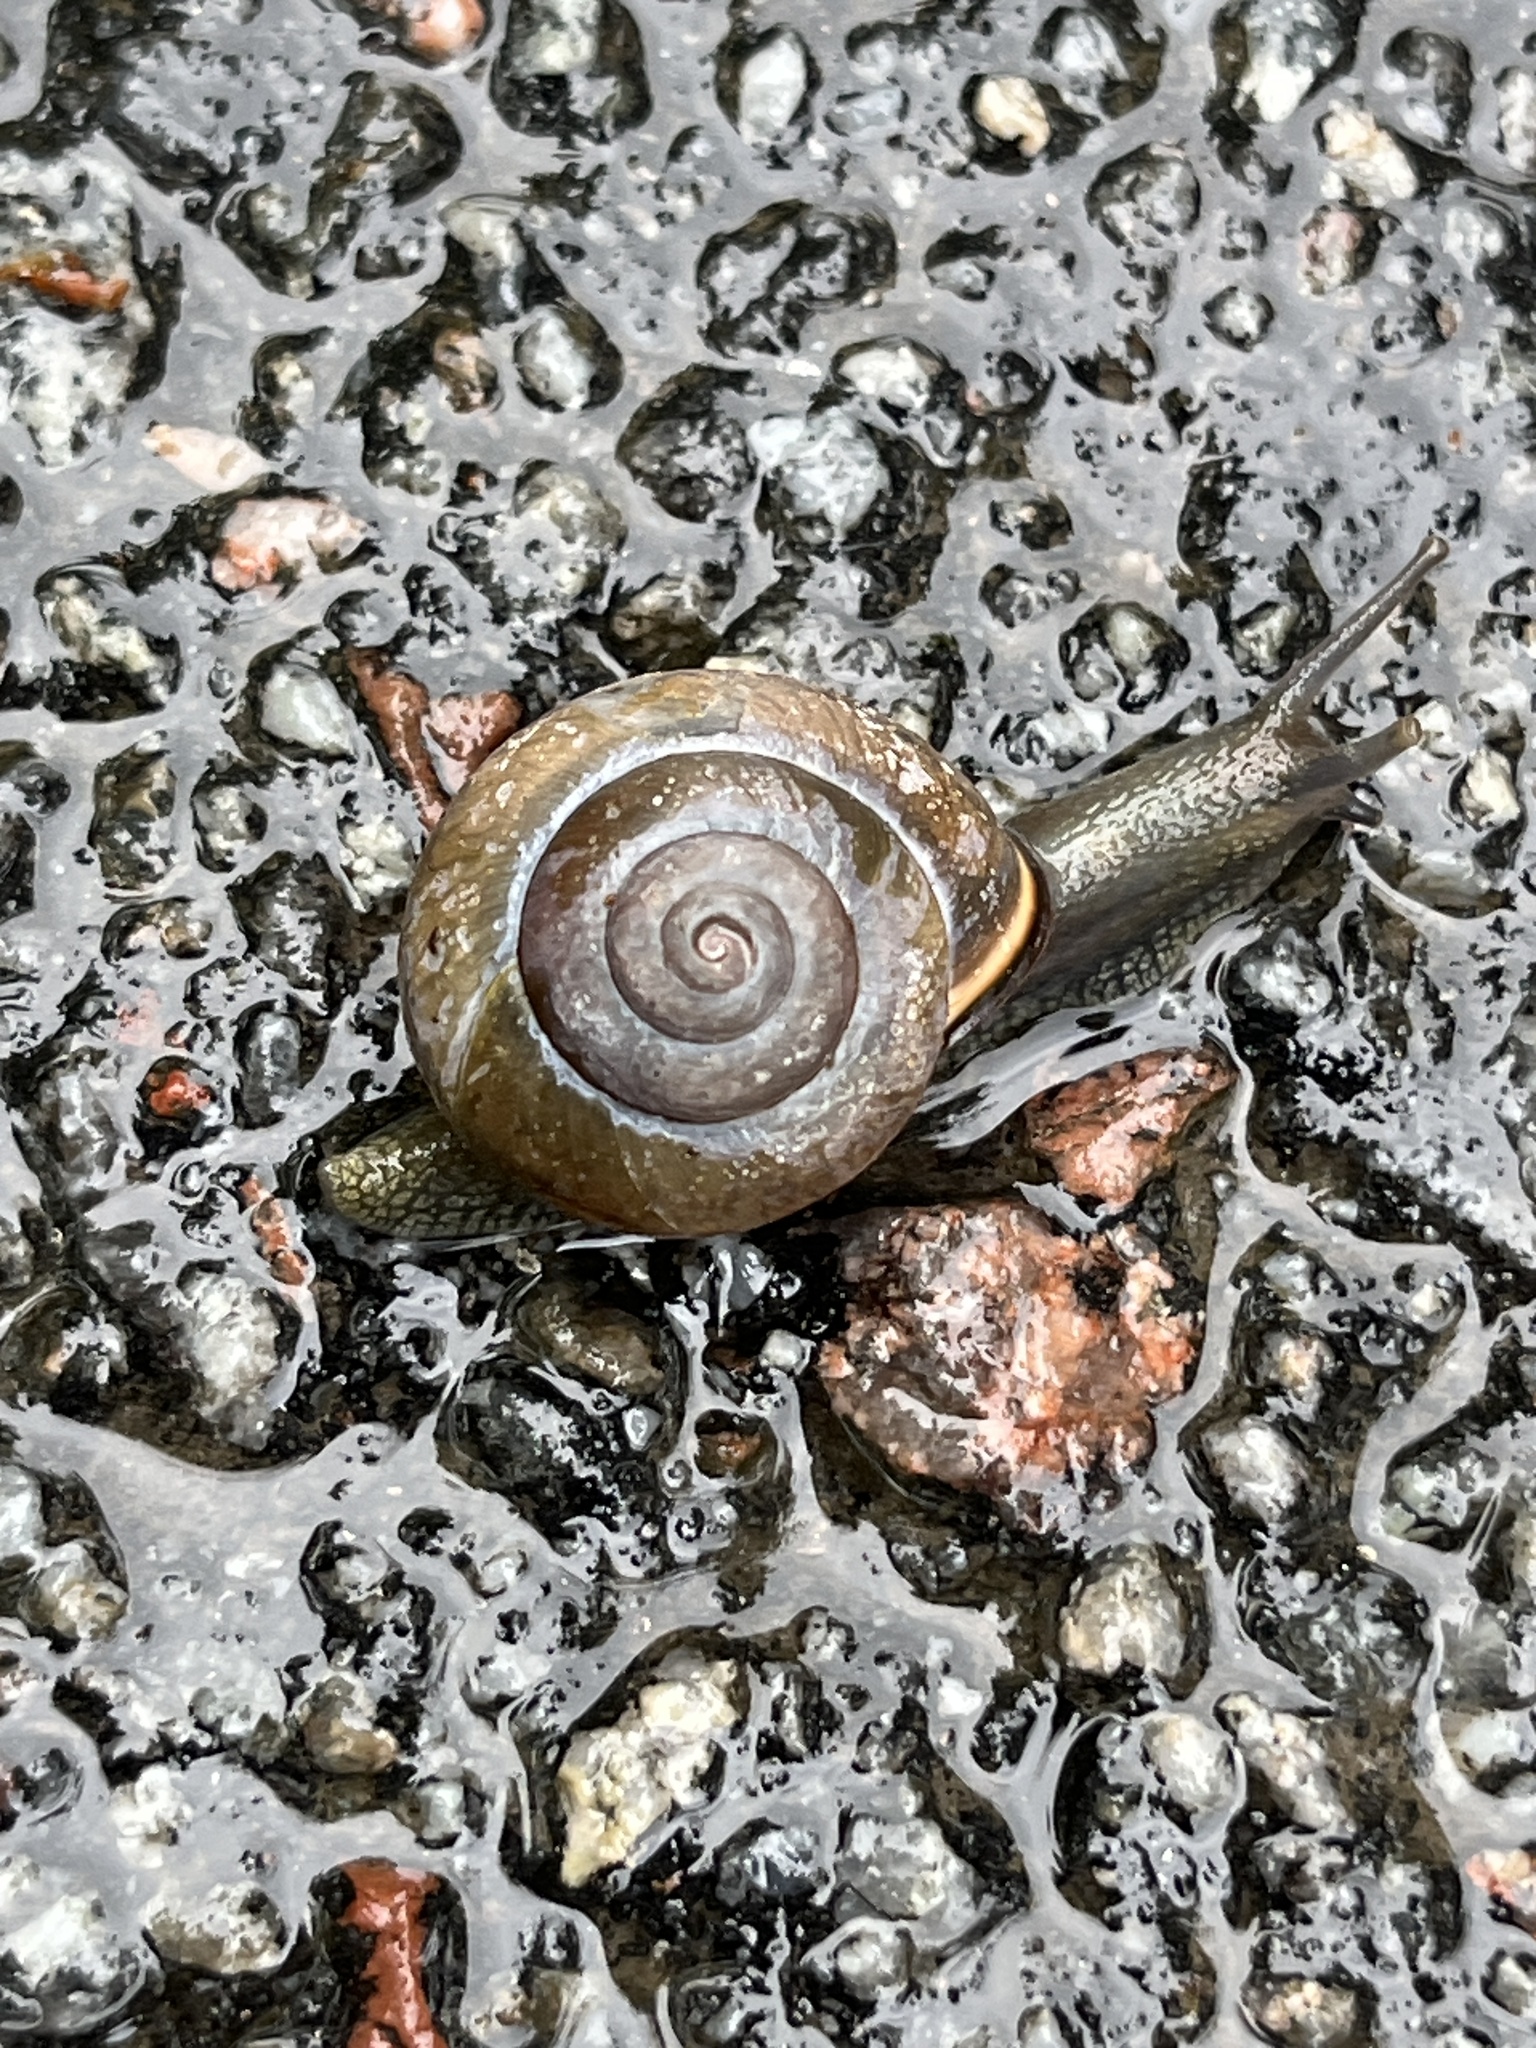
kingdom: Animalia
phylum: Mollusca
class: Gastropoda
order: Stylommatophora
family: Helicidae
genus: Cepaea
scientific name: Cepaea nemoralis
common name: Grovesnail
